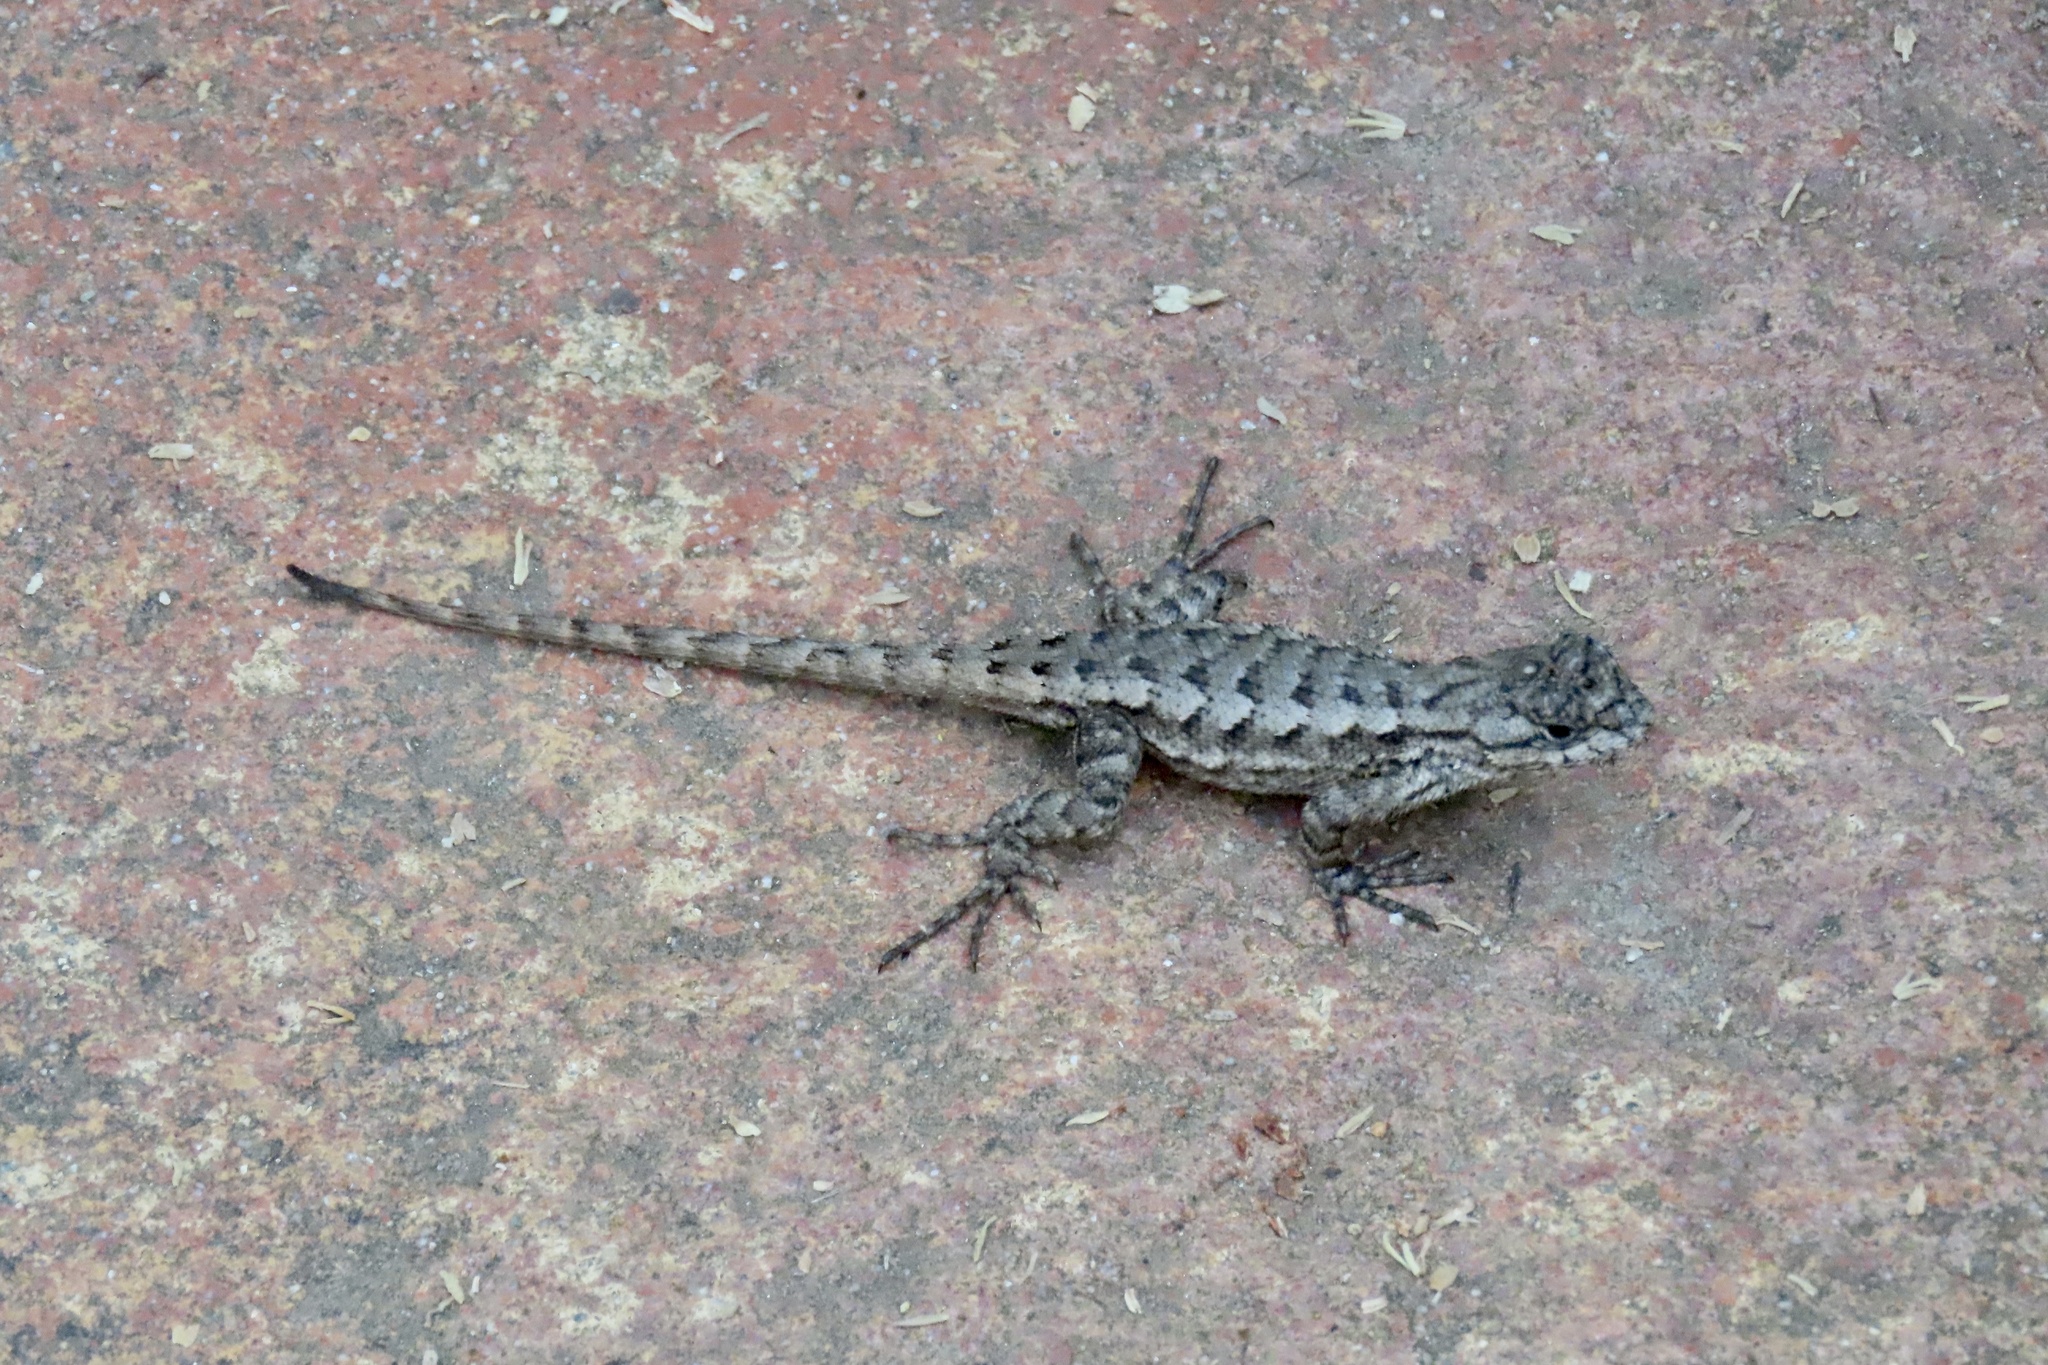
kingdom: Animalia
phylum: Chordata
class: Squamata
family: Phrynosomatidae
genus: Sceloporus
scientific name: Sceloporus occidentalis
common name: Western fence lizard
